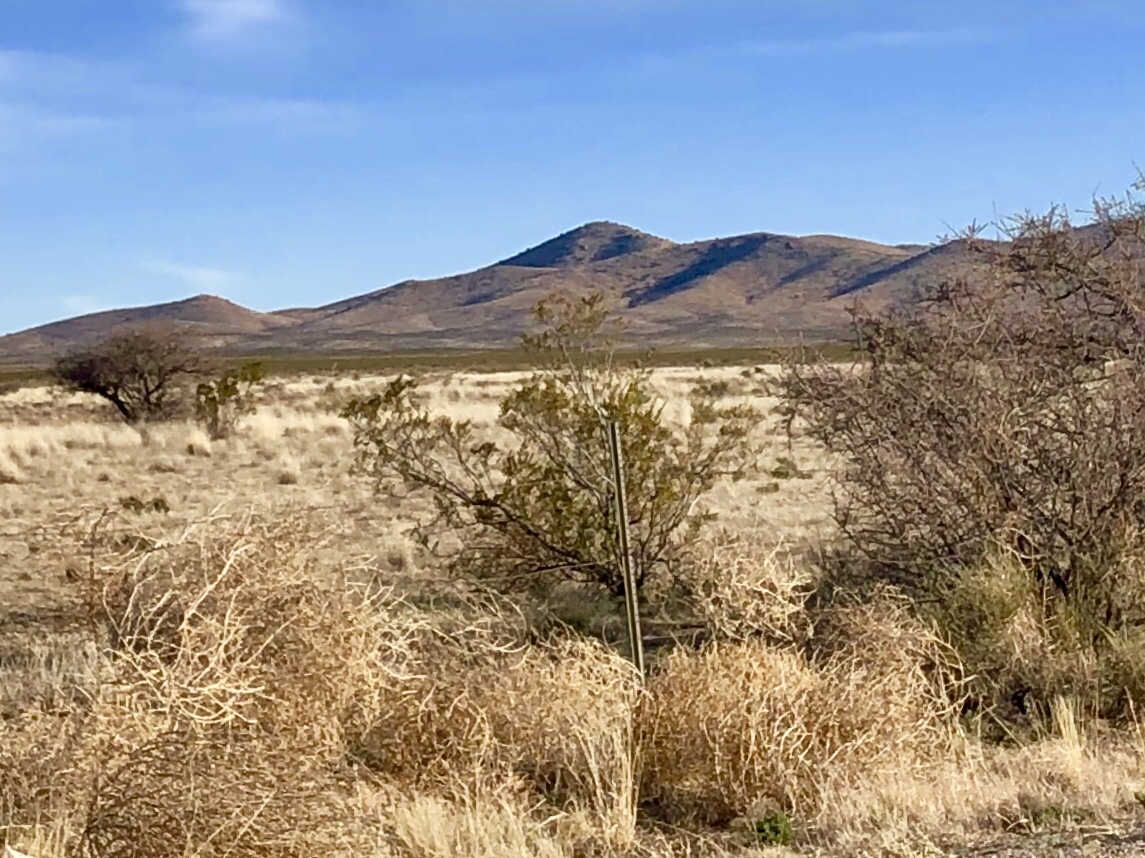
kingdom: Plantae
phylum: Tracheophyta
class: Magnoliopsida
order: Zygophyllales
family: Zygophyllaceae
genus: Larrea
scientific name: Larrea tridentata
